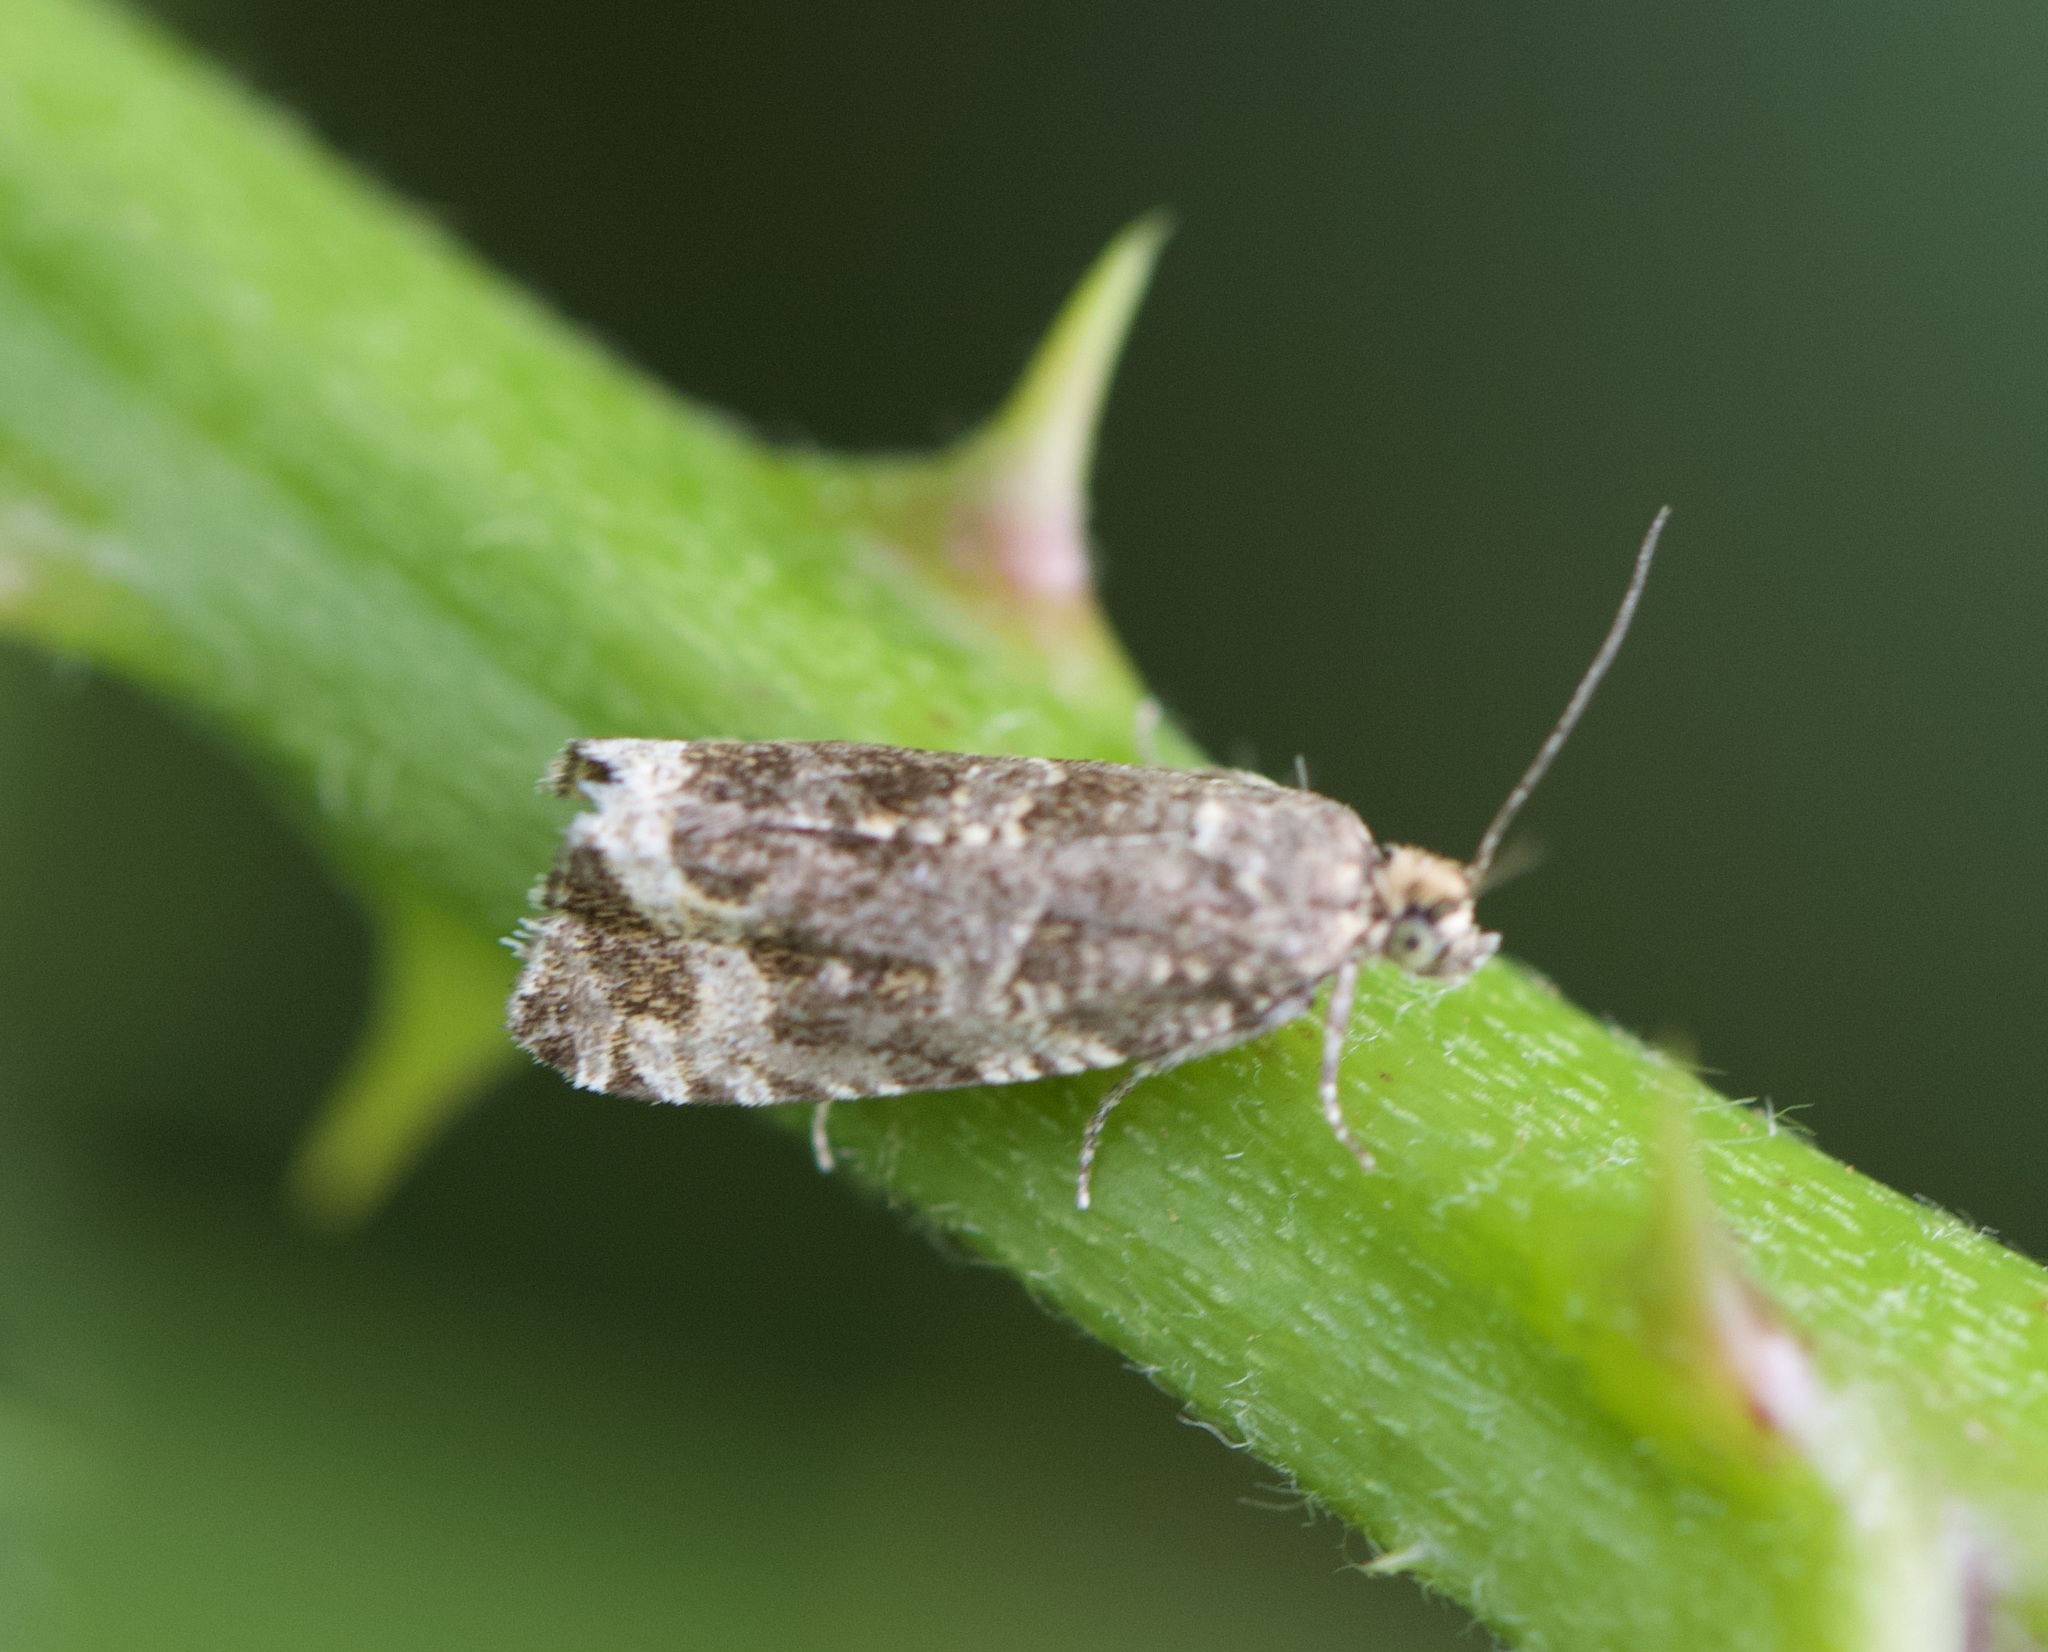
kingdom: Animalia
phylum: Arthropoda
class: Insecta
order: Lepidoptera
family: Tortricidae
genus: Syricoris
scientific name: Syricoris lacunana
